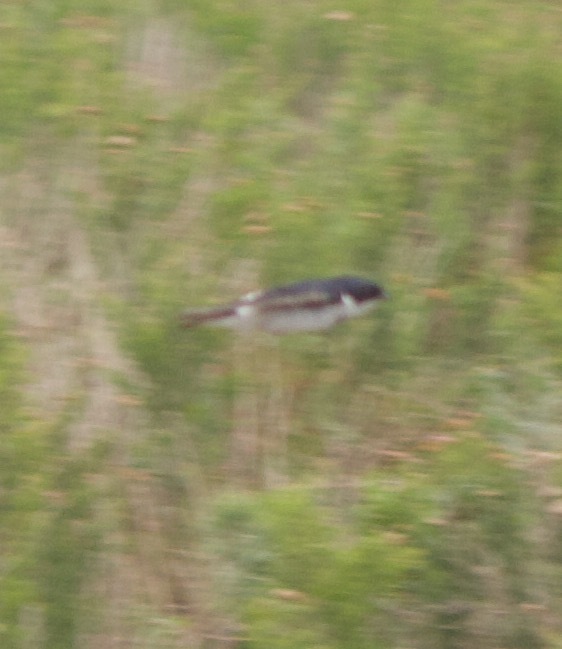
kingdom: Animalia
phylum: Chordata
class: Aves
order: Passeriformes
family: Hirundinidae
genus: Tachycineta
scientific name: Tachycineta leucopyga
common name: Chilean swallow
